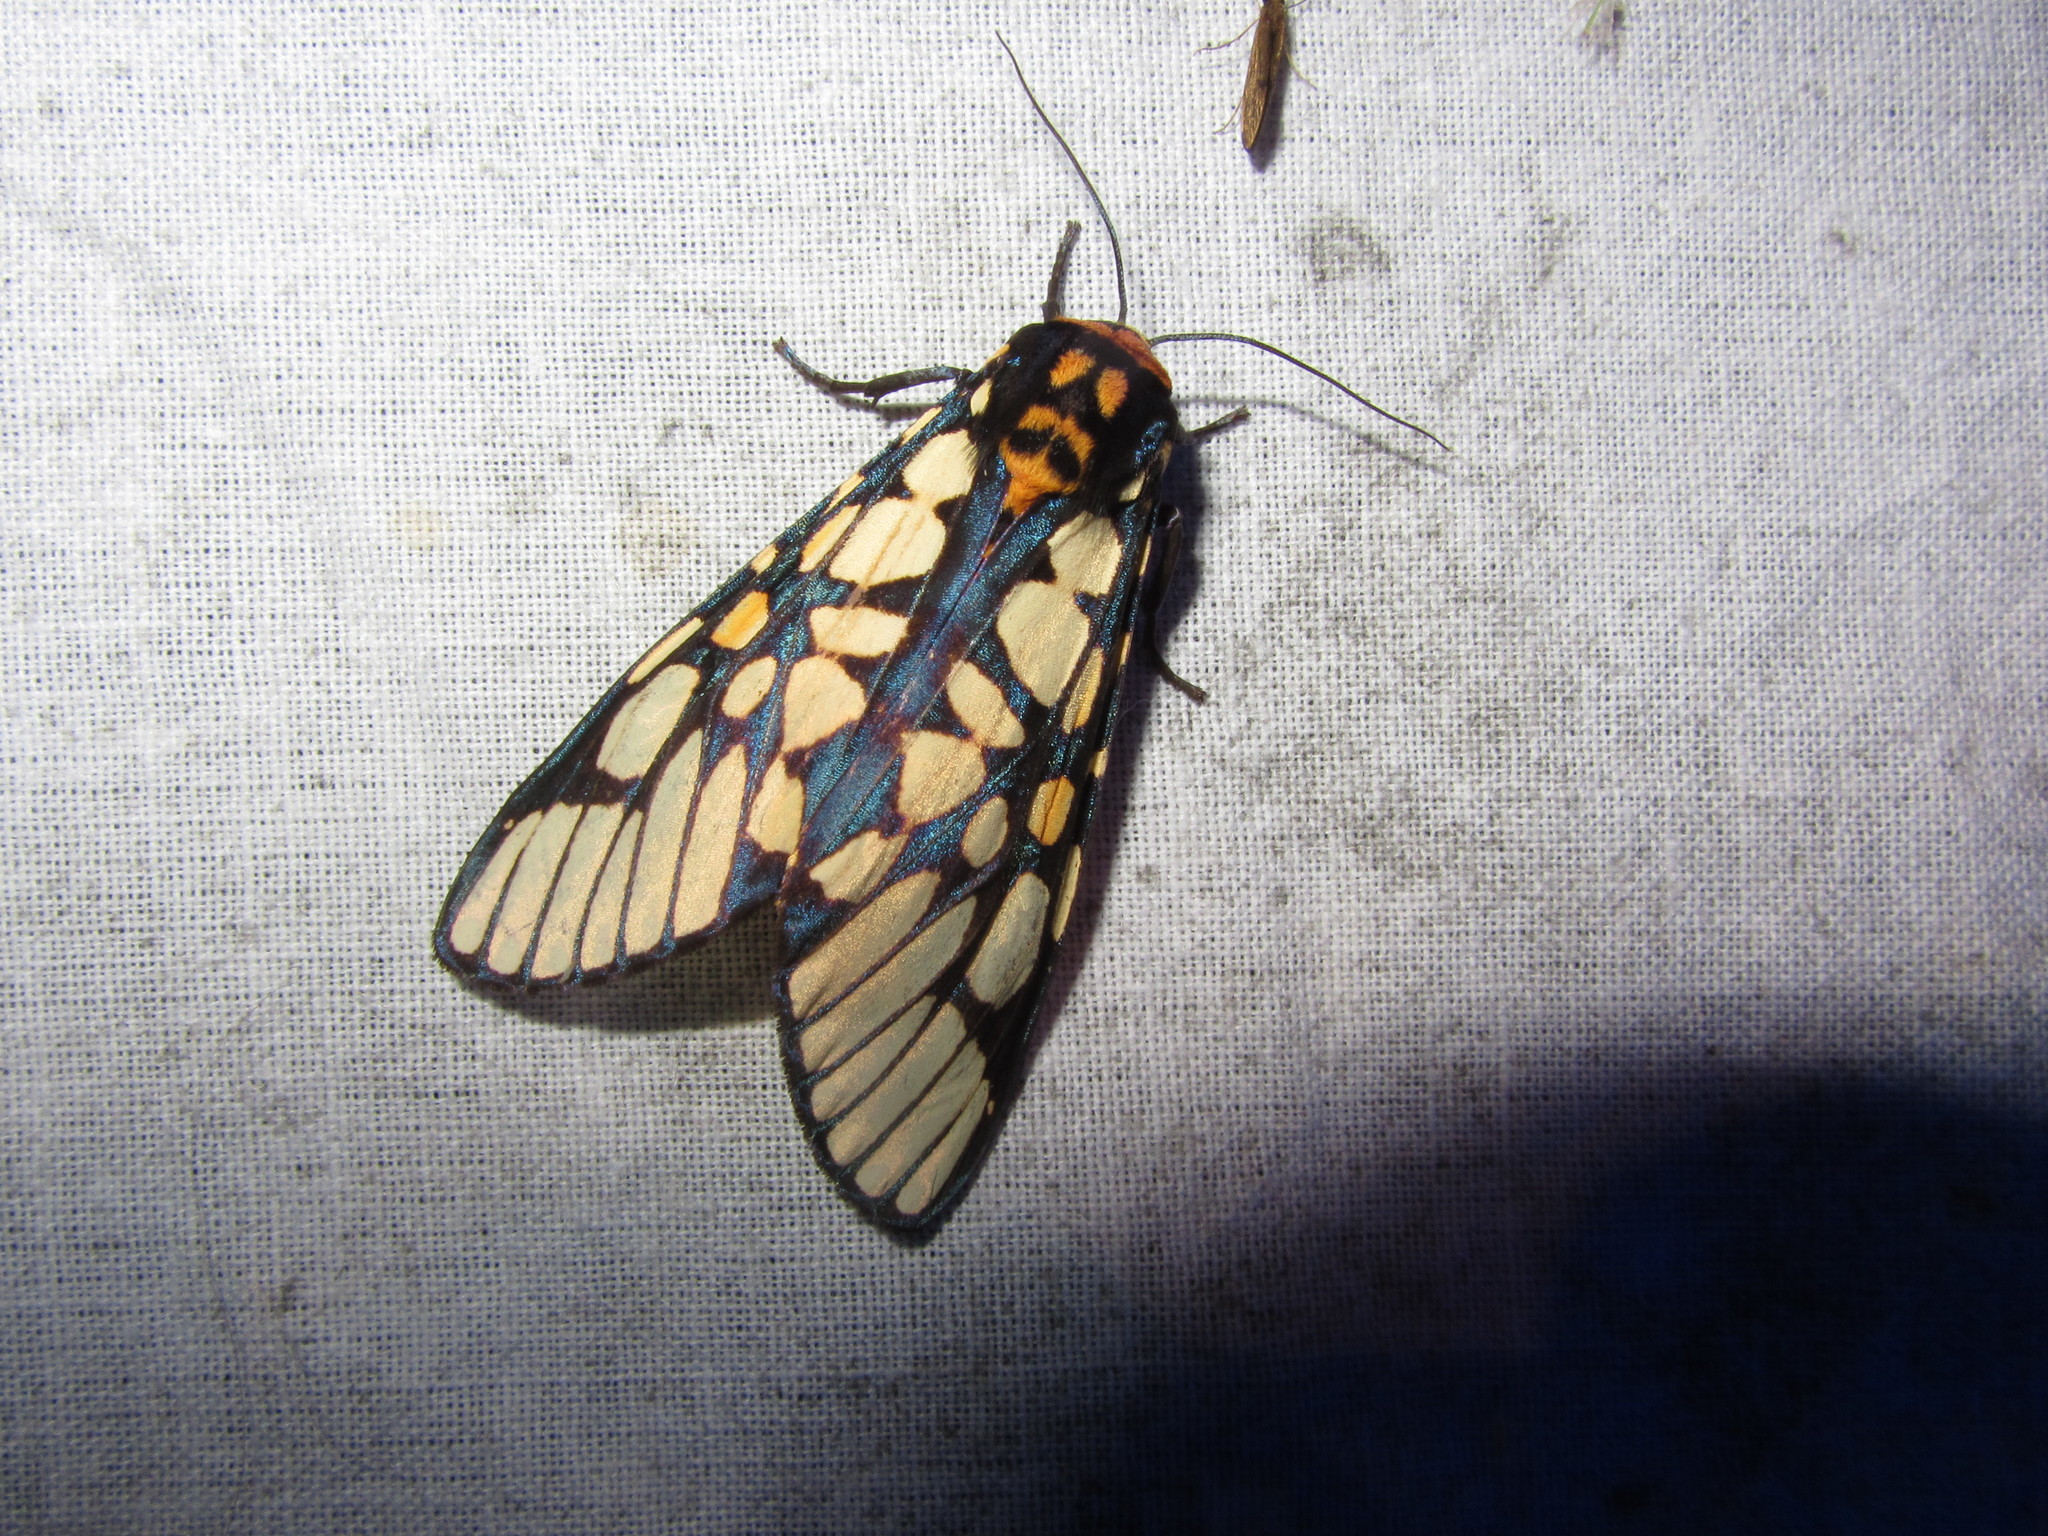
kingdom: Animalia
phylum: Arthropoda
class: Insecta
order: Lepidoptera
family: Erebidae
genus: Aglaomorpha
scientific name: Aglaomorpha plagiata
